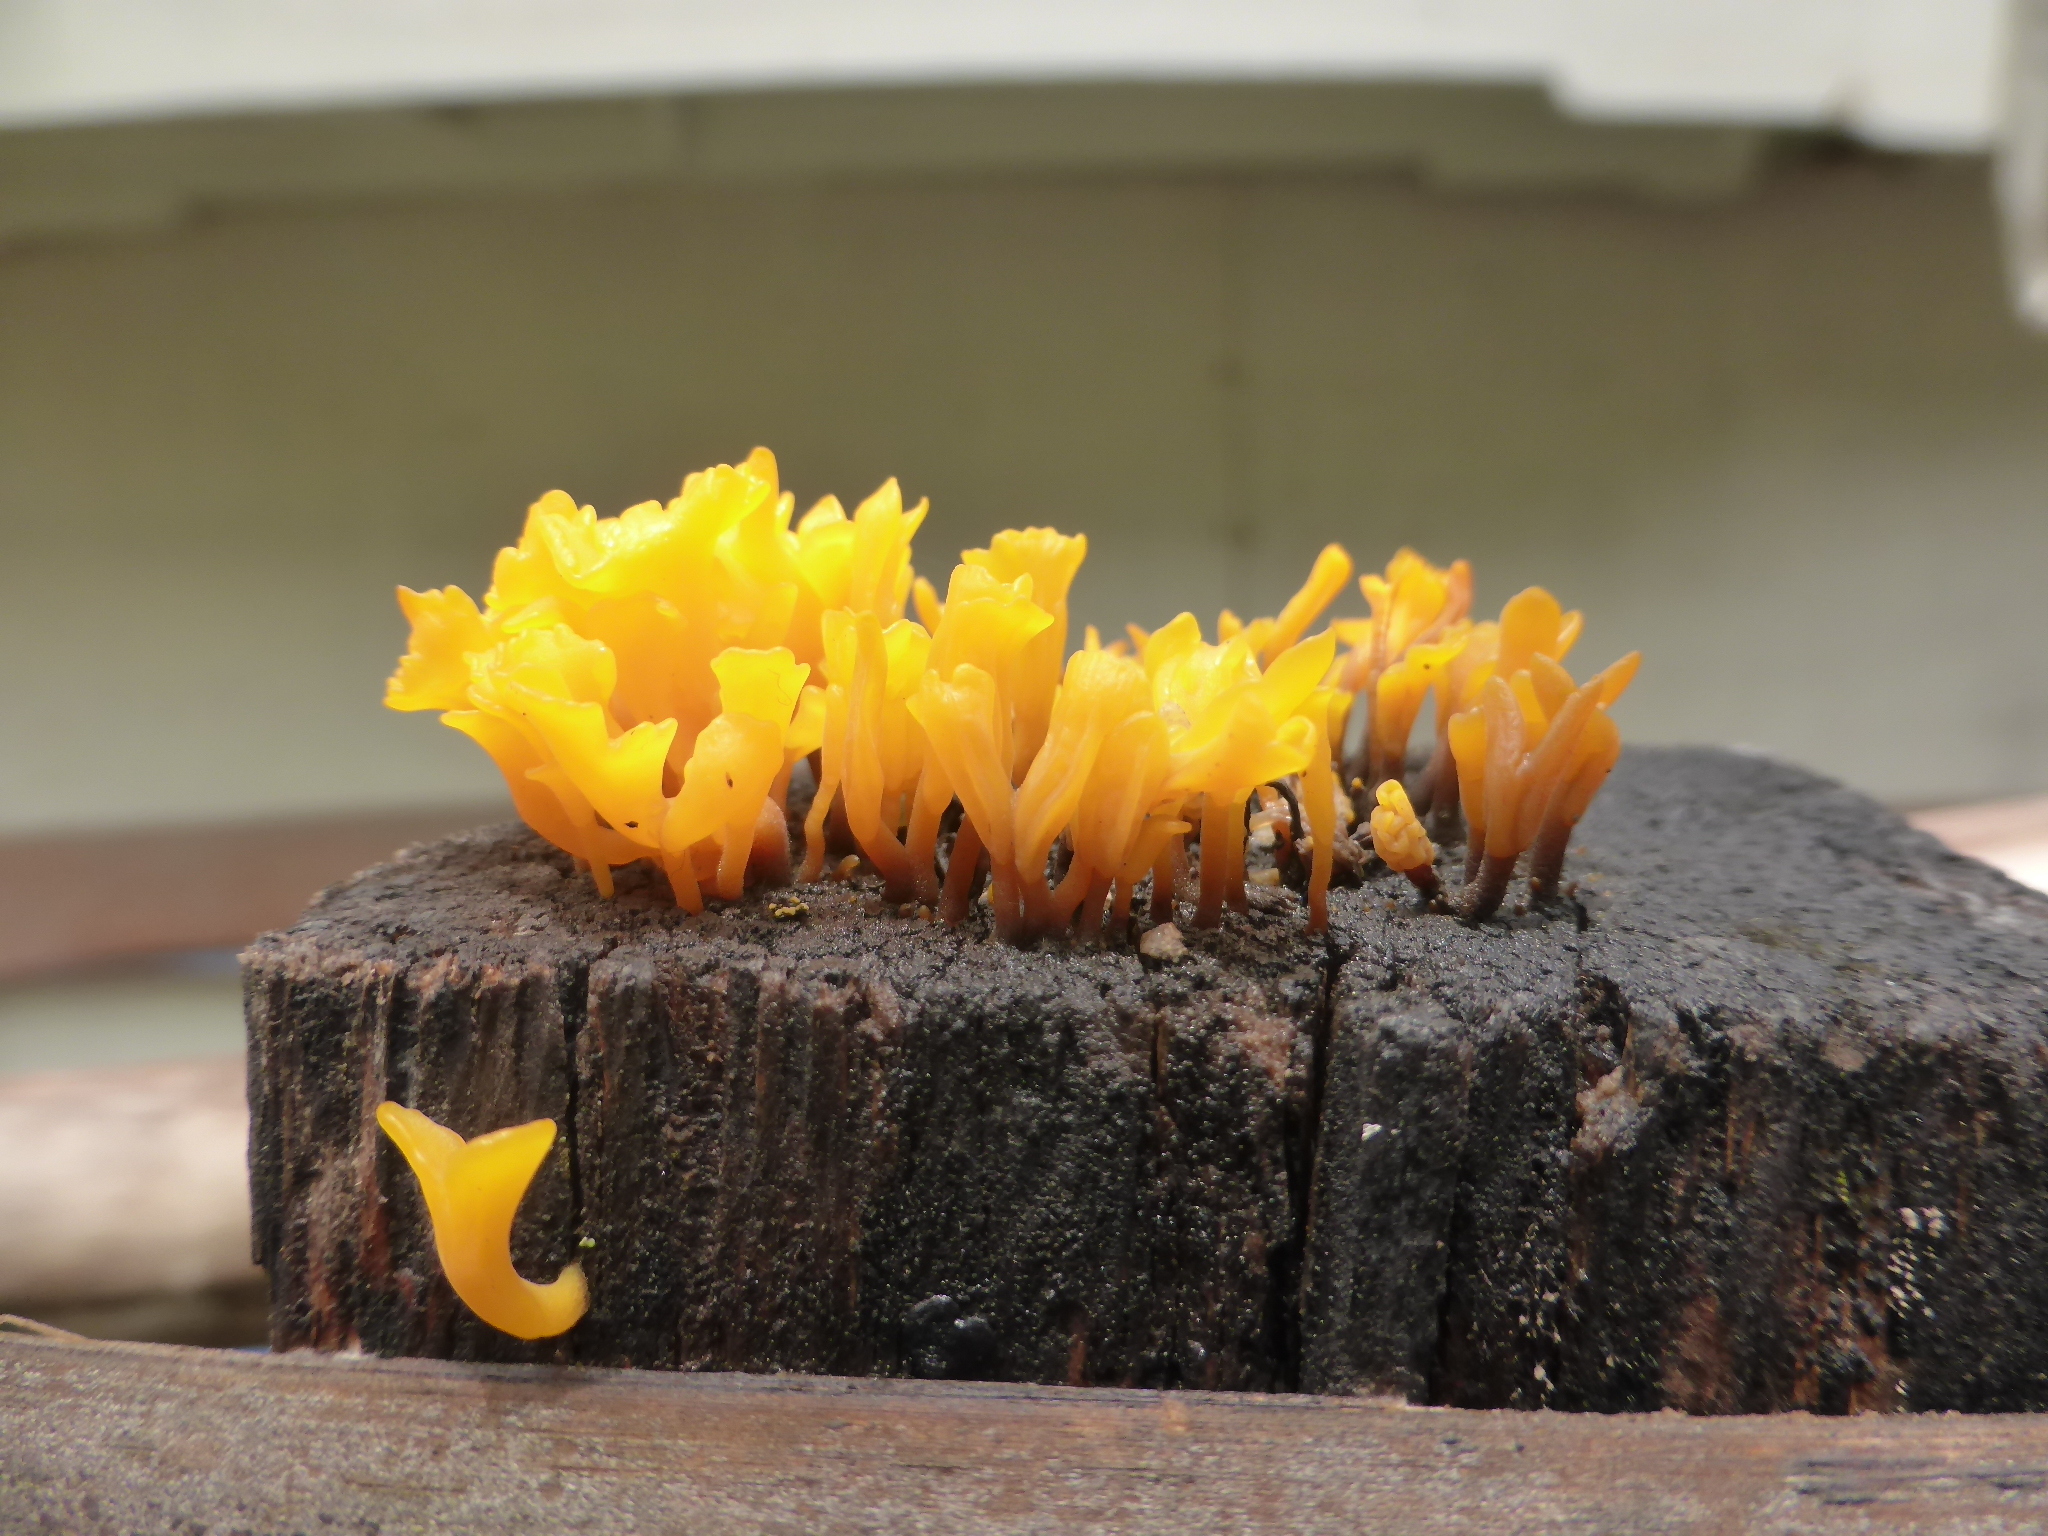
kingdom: Fungi
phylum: Basidiomycota
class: Dacrymycetes
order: Dacrymycetales
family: Dacrymycetaceae
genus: Dacrymyces
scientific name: Dacrymyces spathularius
